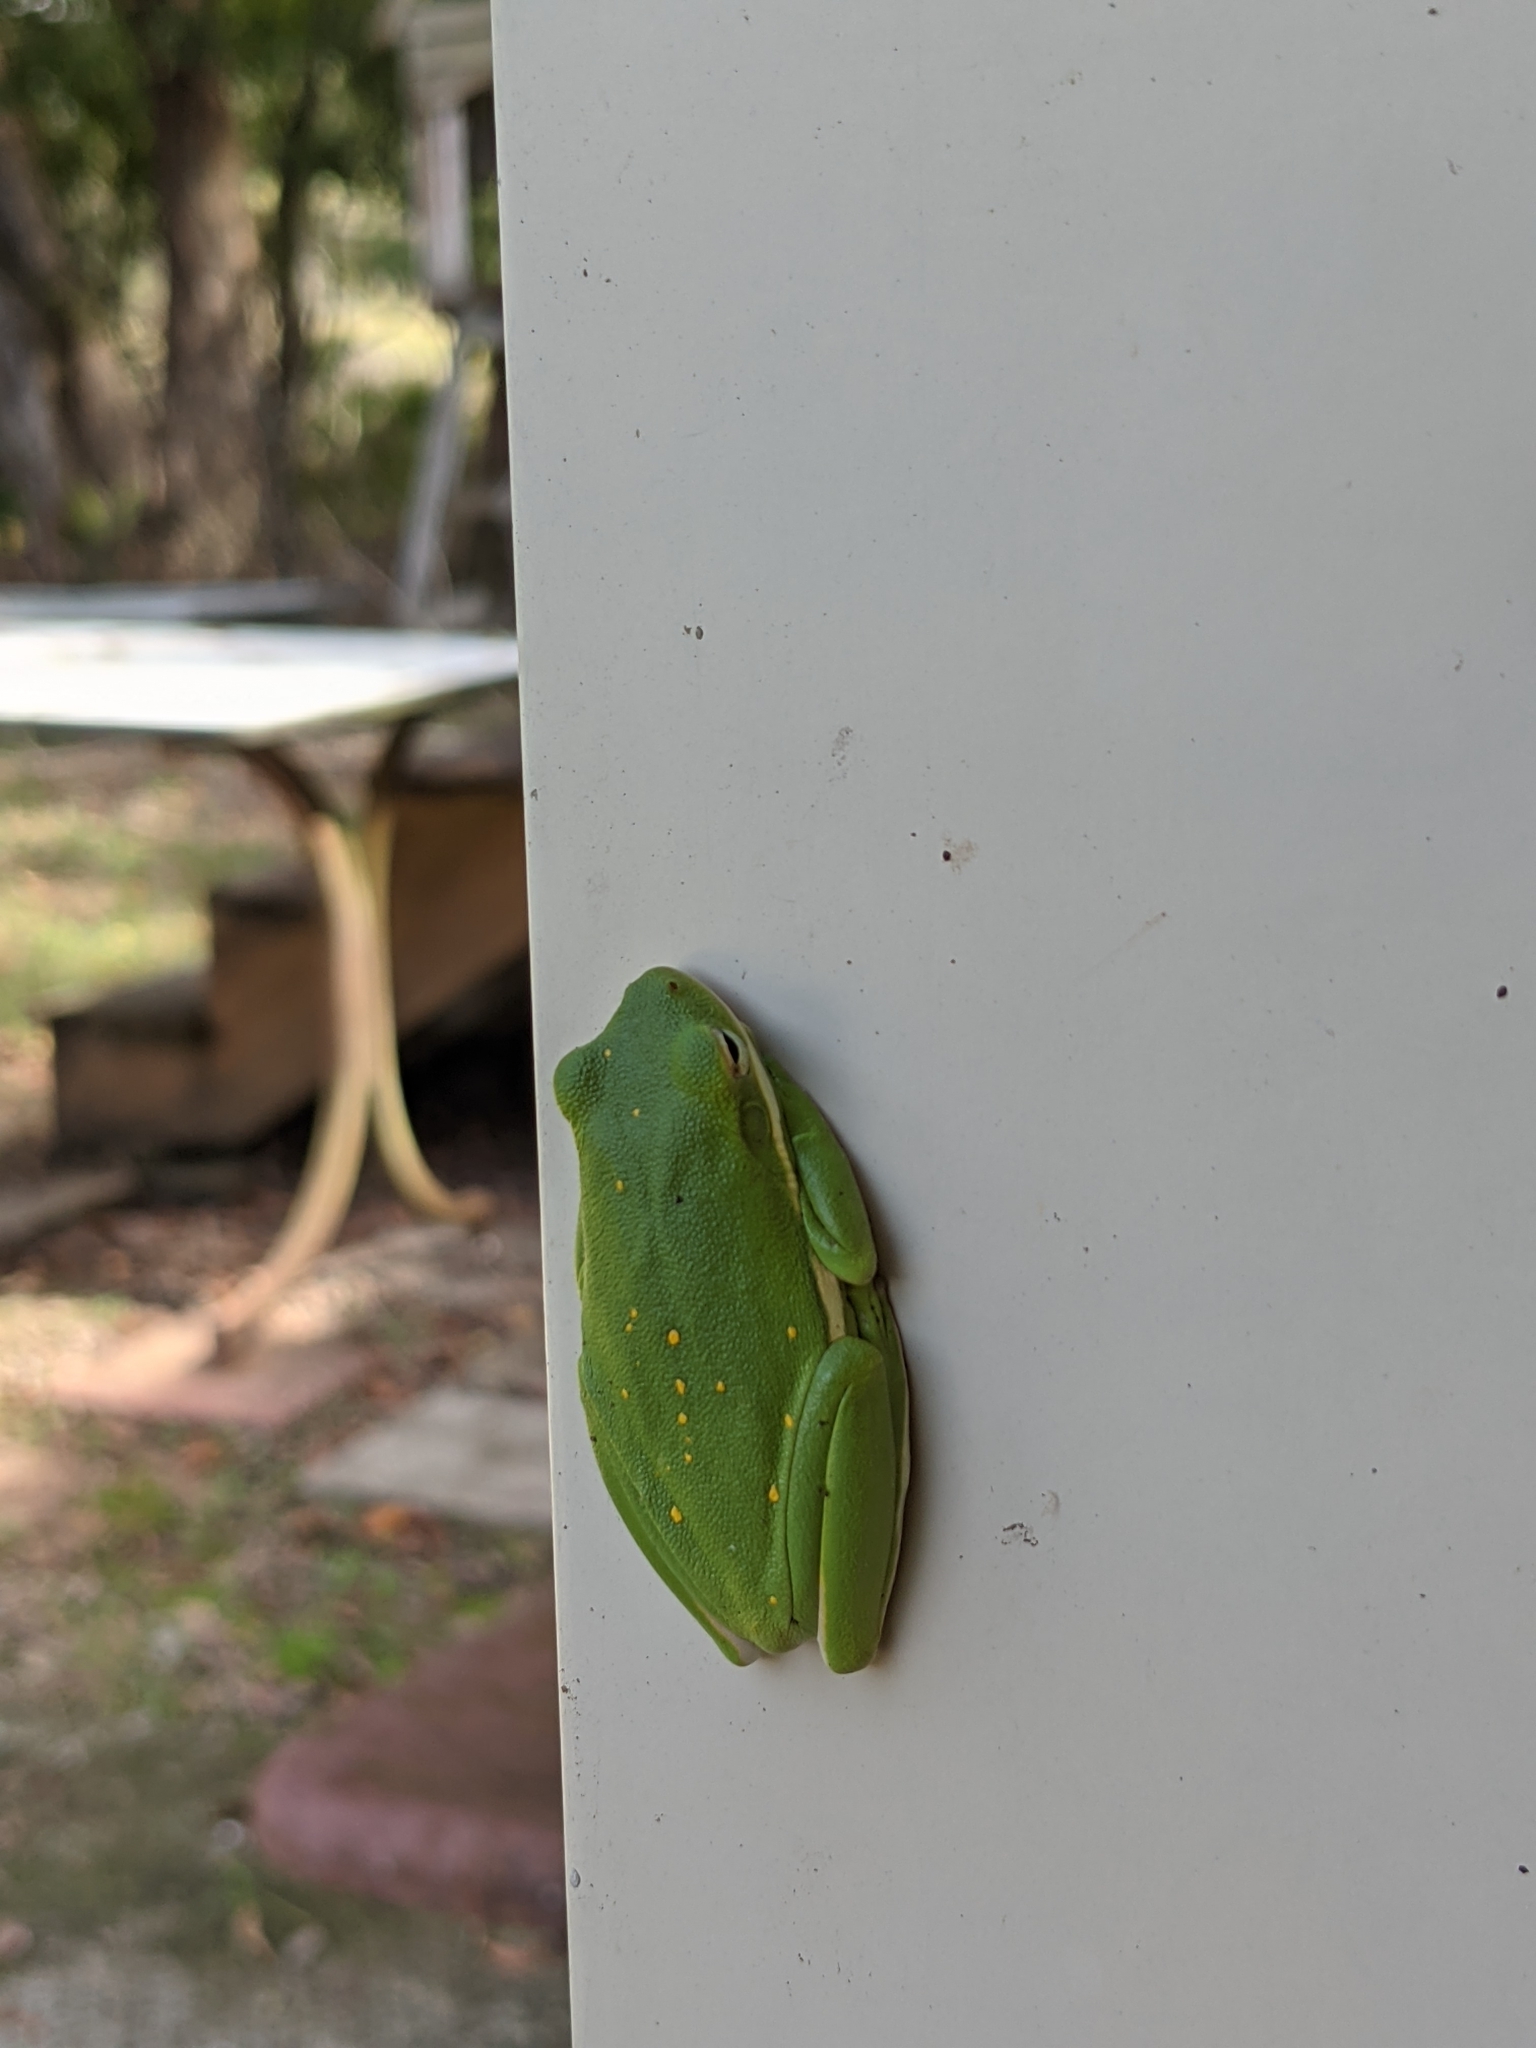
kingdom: Animalia
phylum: Chordata
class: Amphibia
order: Anura
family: Hylidae
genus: Dryophytes
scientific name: Dryophytes cinereus
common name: Green treefrog
